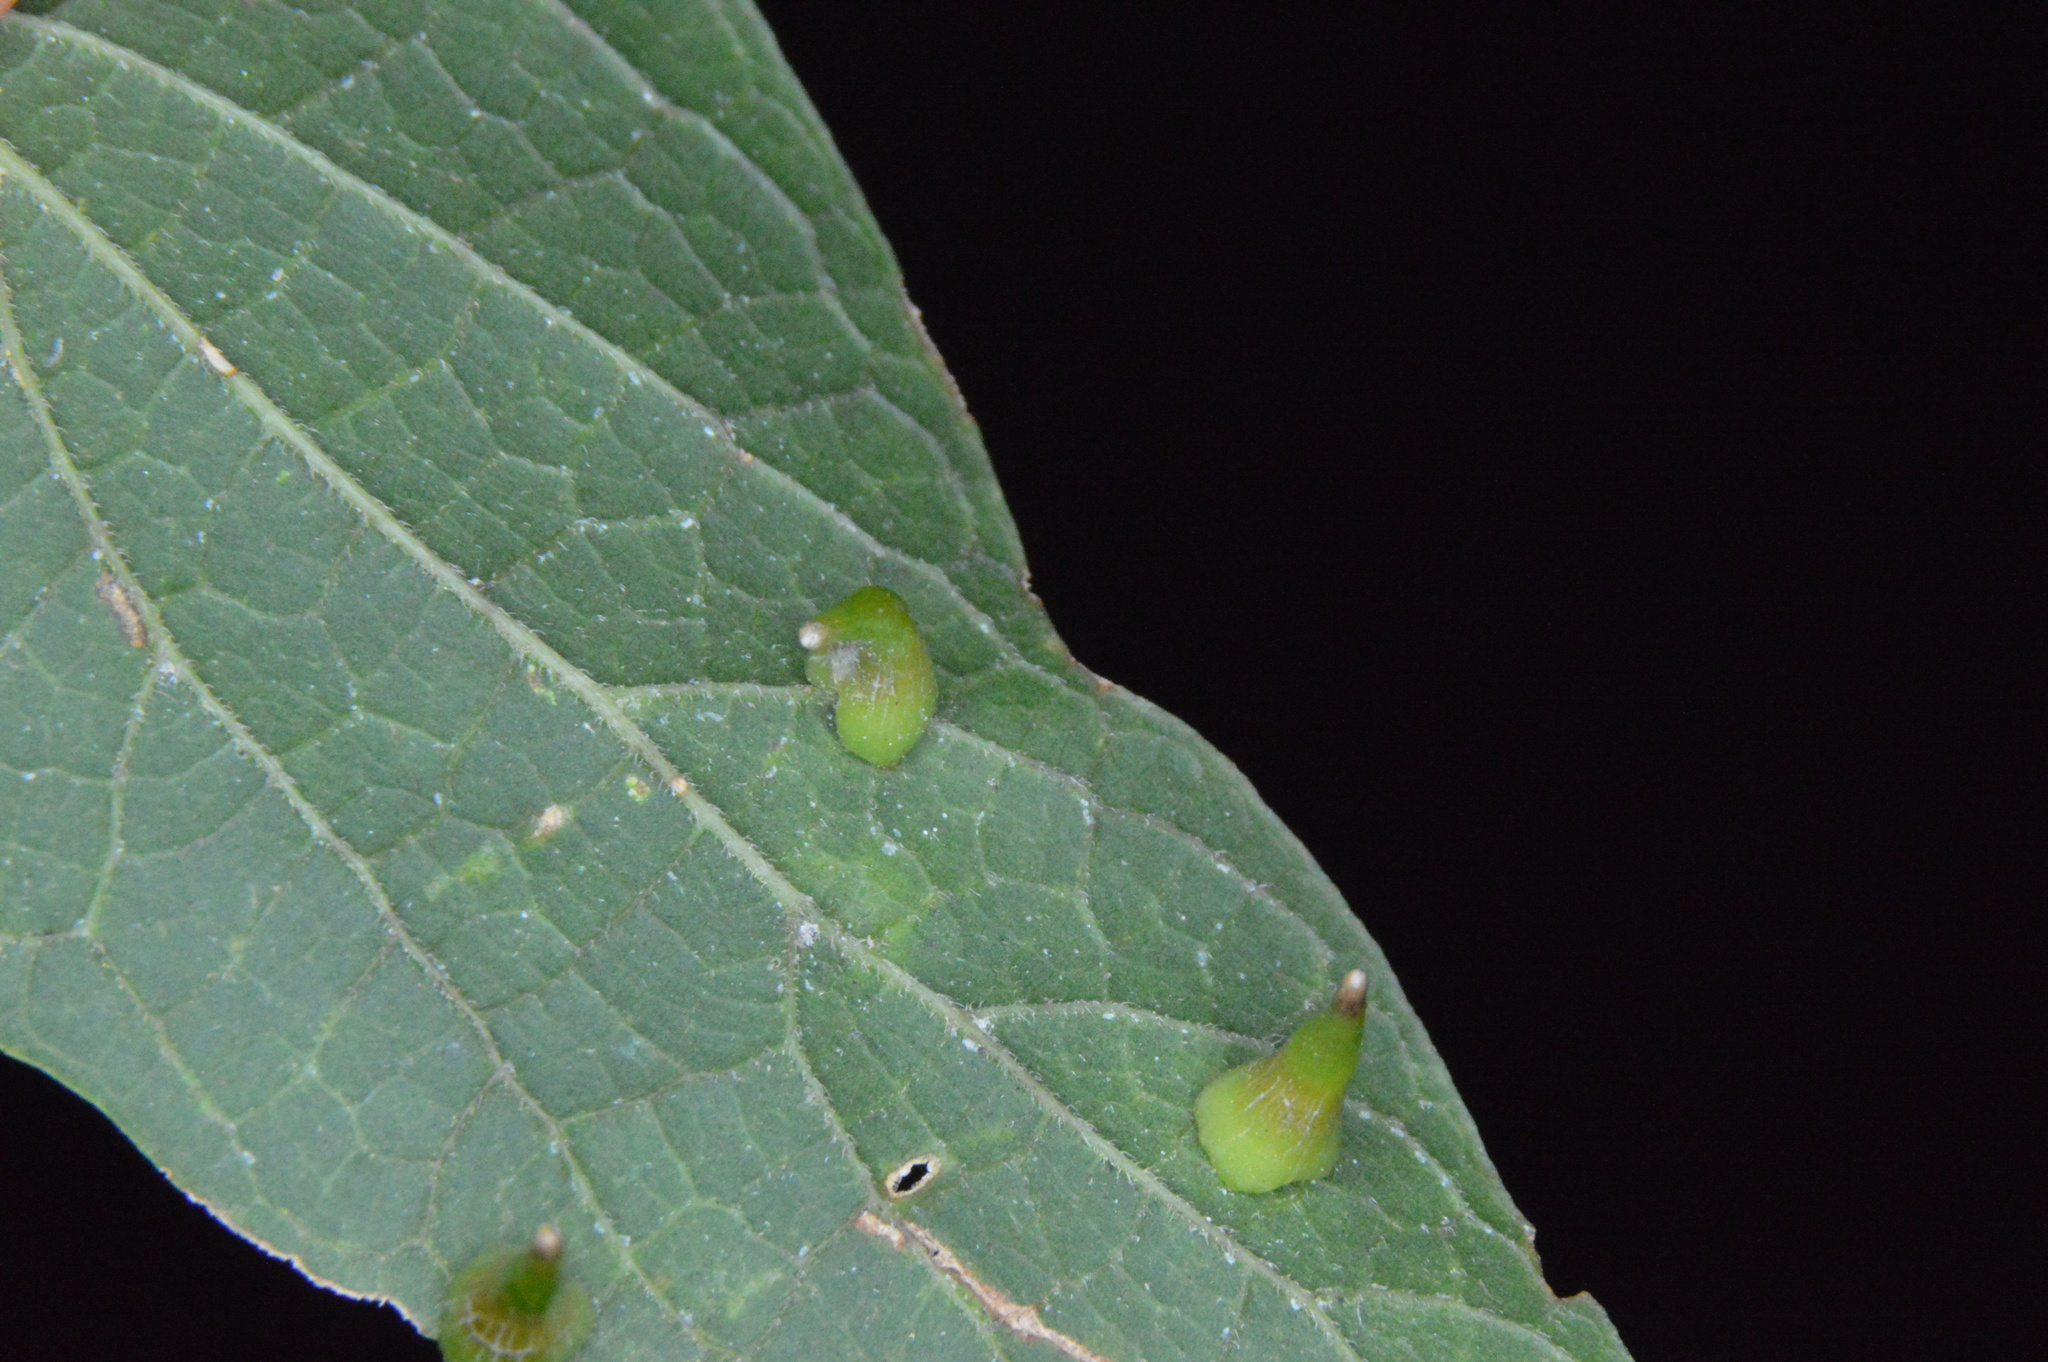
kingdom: Animalia
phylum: Arthropoda
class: Insecta
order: Diptera
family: Cecidomyiidae
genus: Celticecis
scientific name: Celticecis subulata
